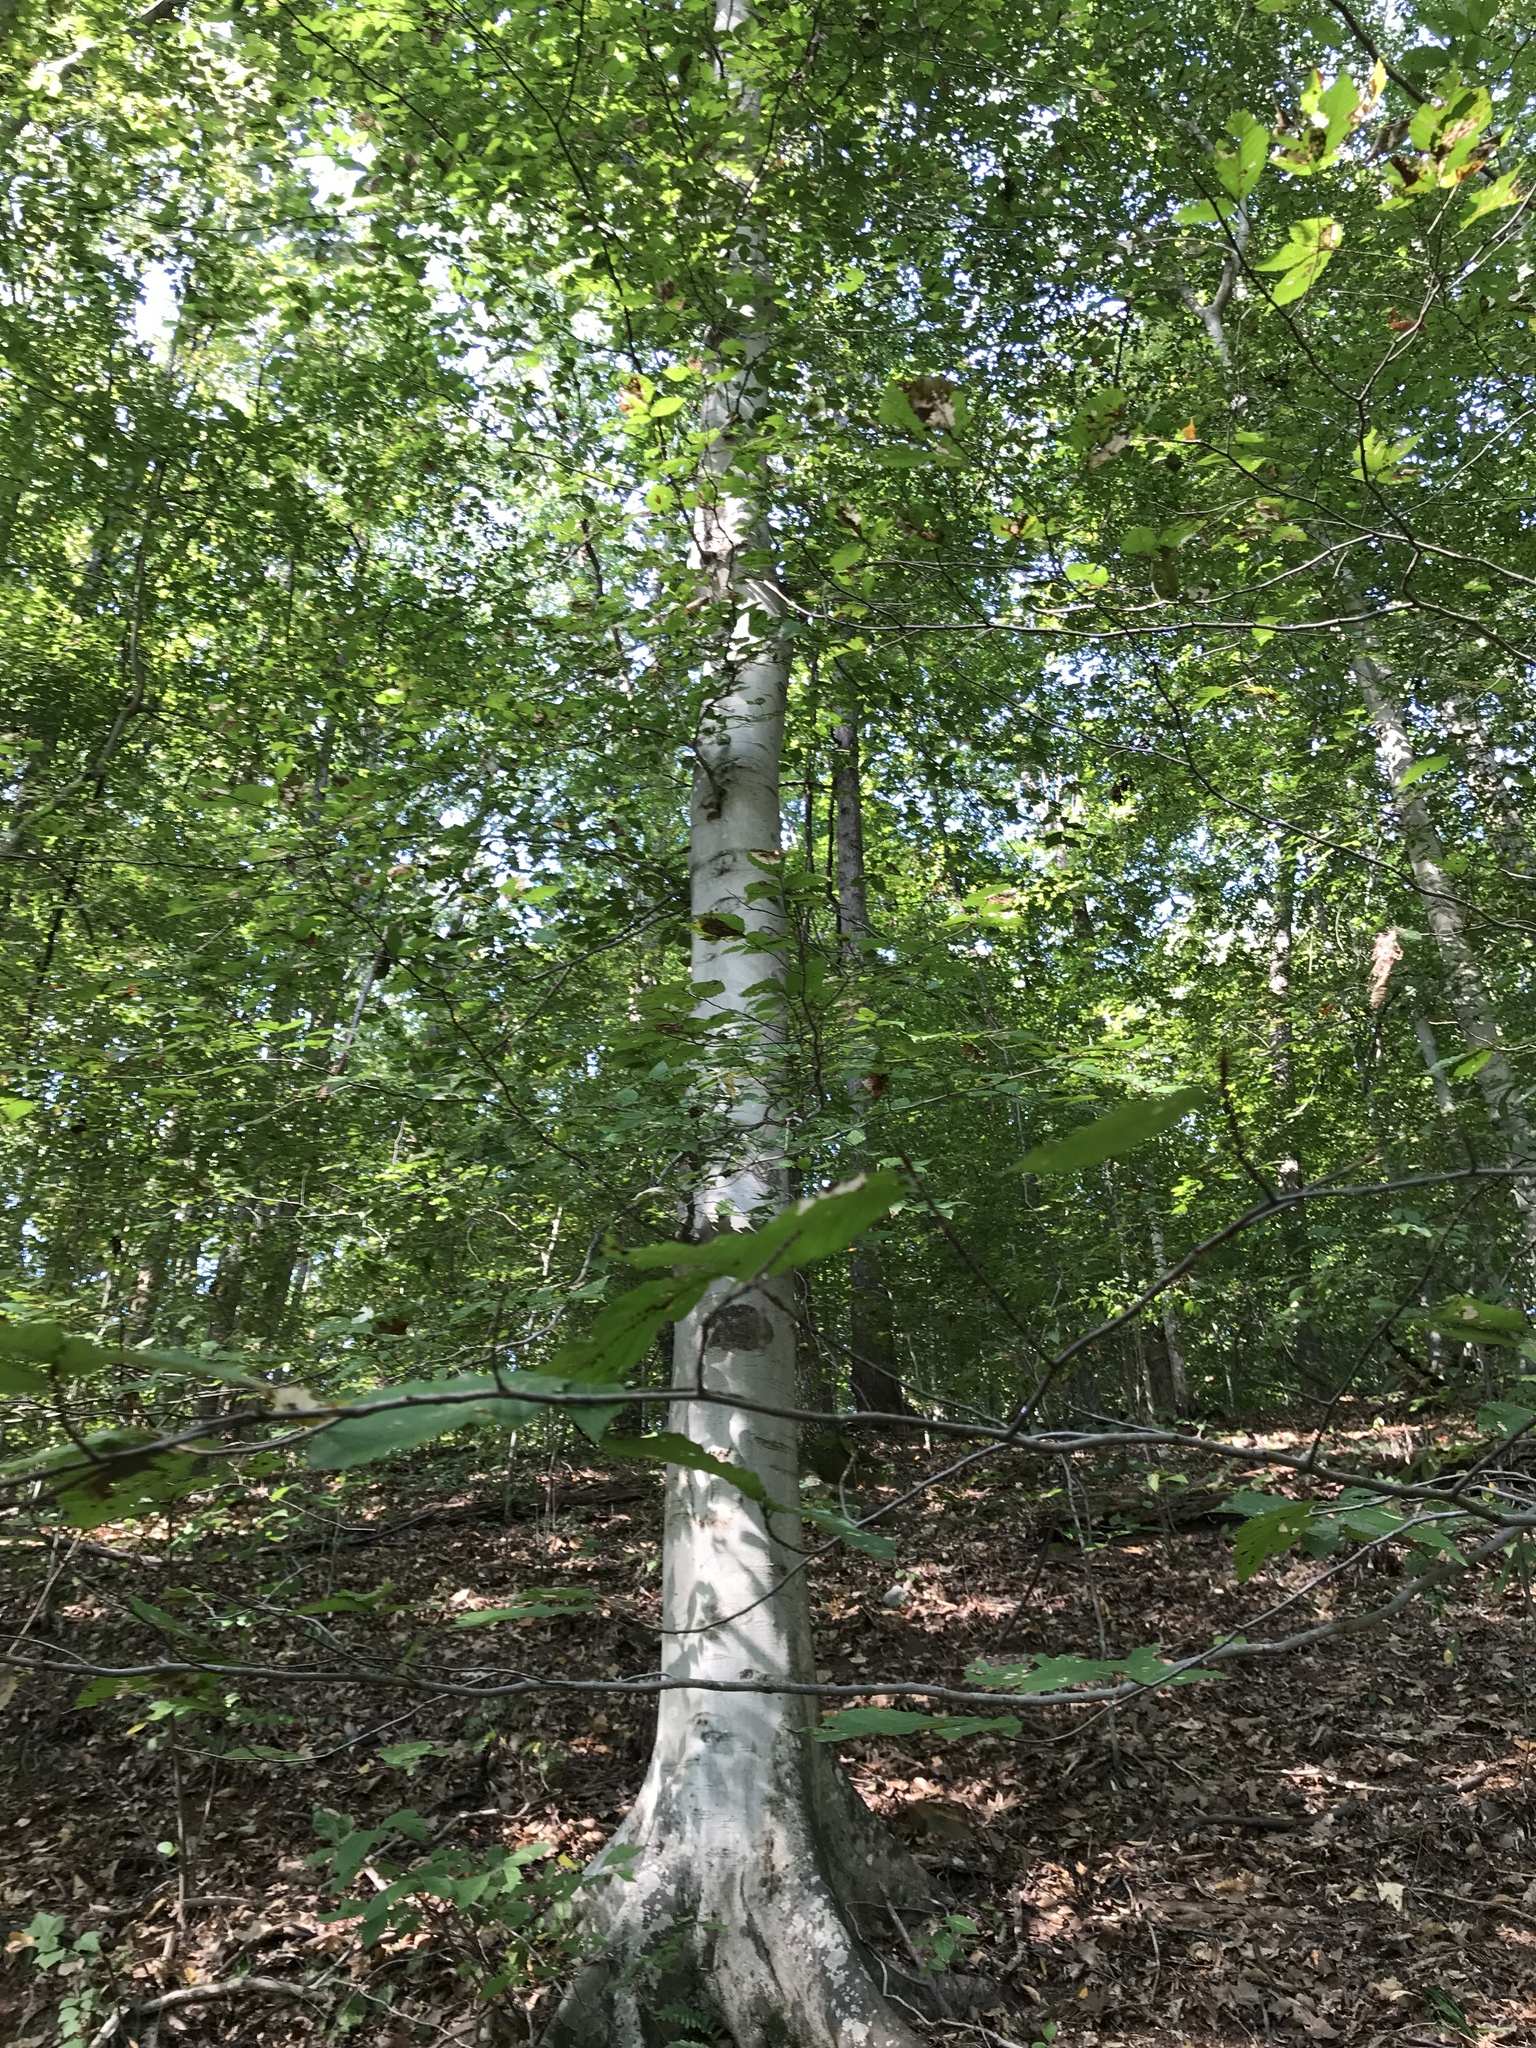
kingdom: Plantae
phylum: Tracheophyta
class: Magnoliopsida
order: Fagales
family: Fagaceae
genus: Fagus
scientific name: Fagus grandifolia
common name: American beech
